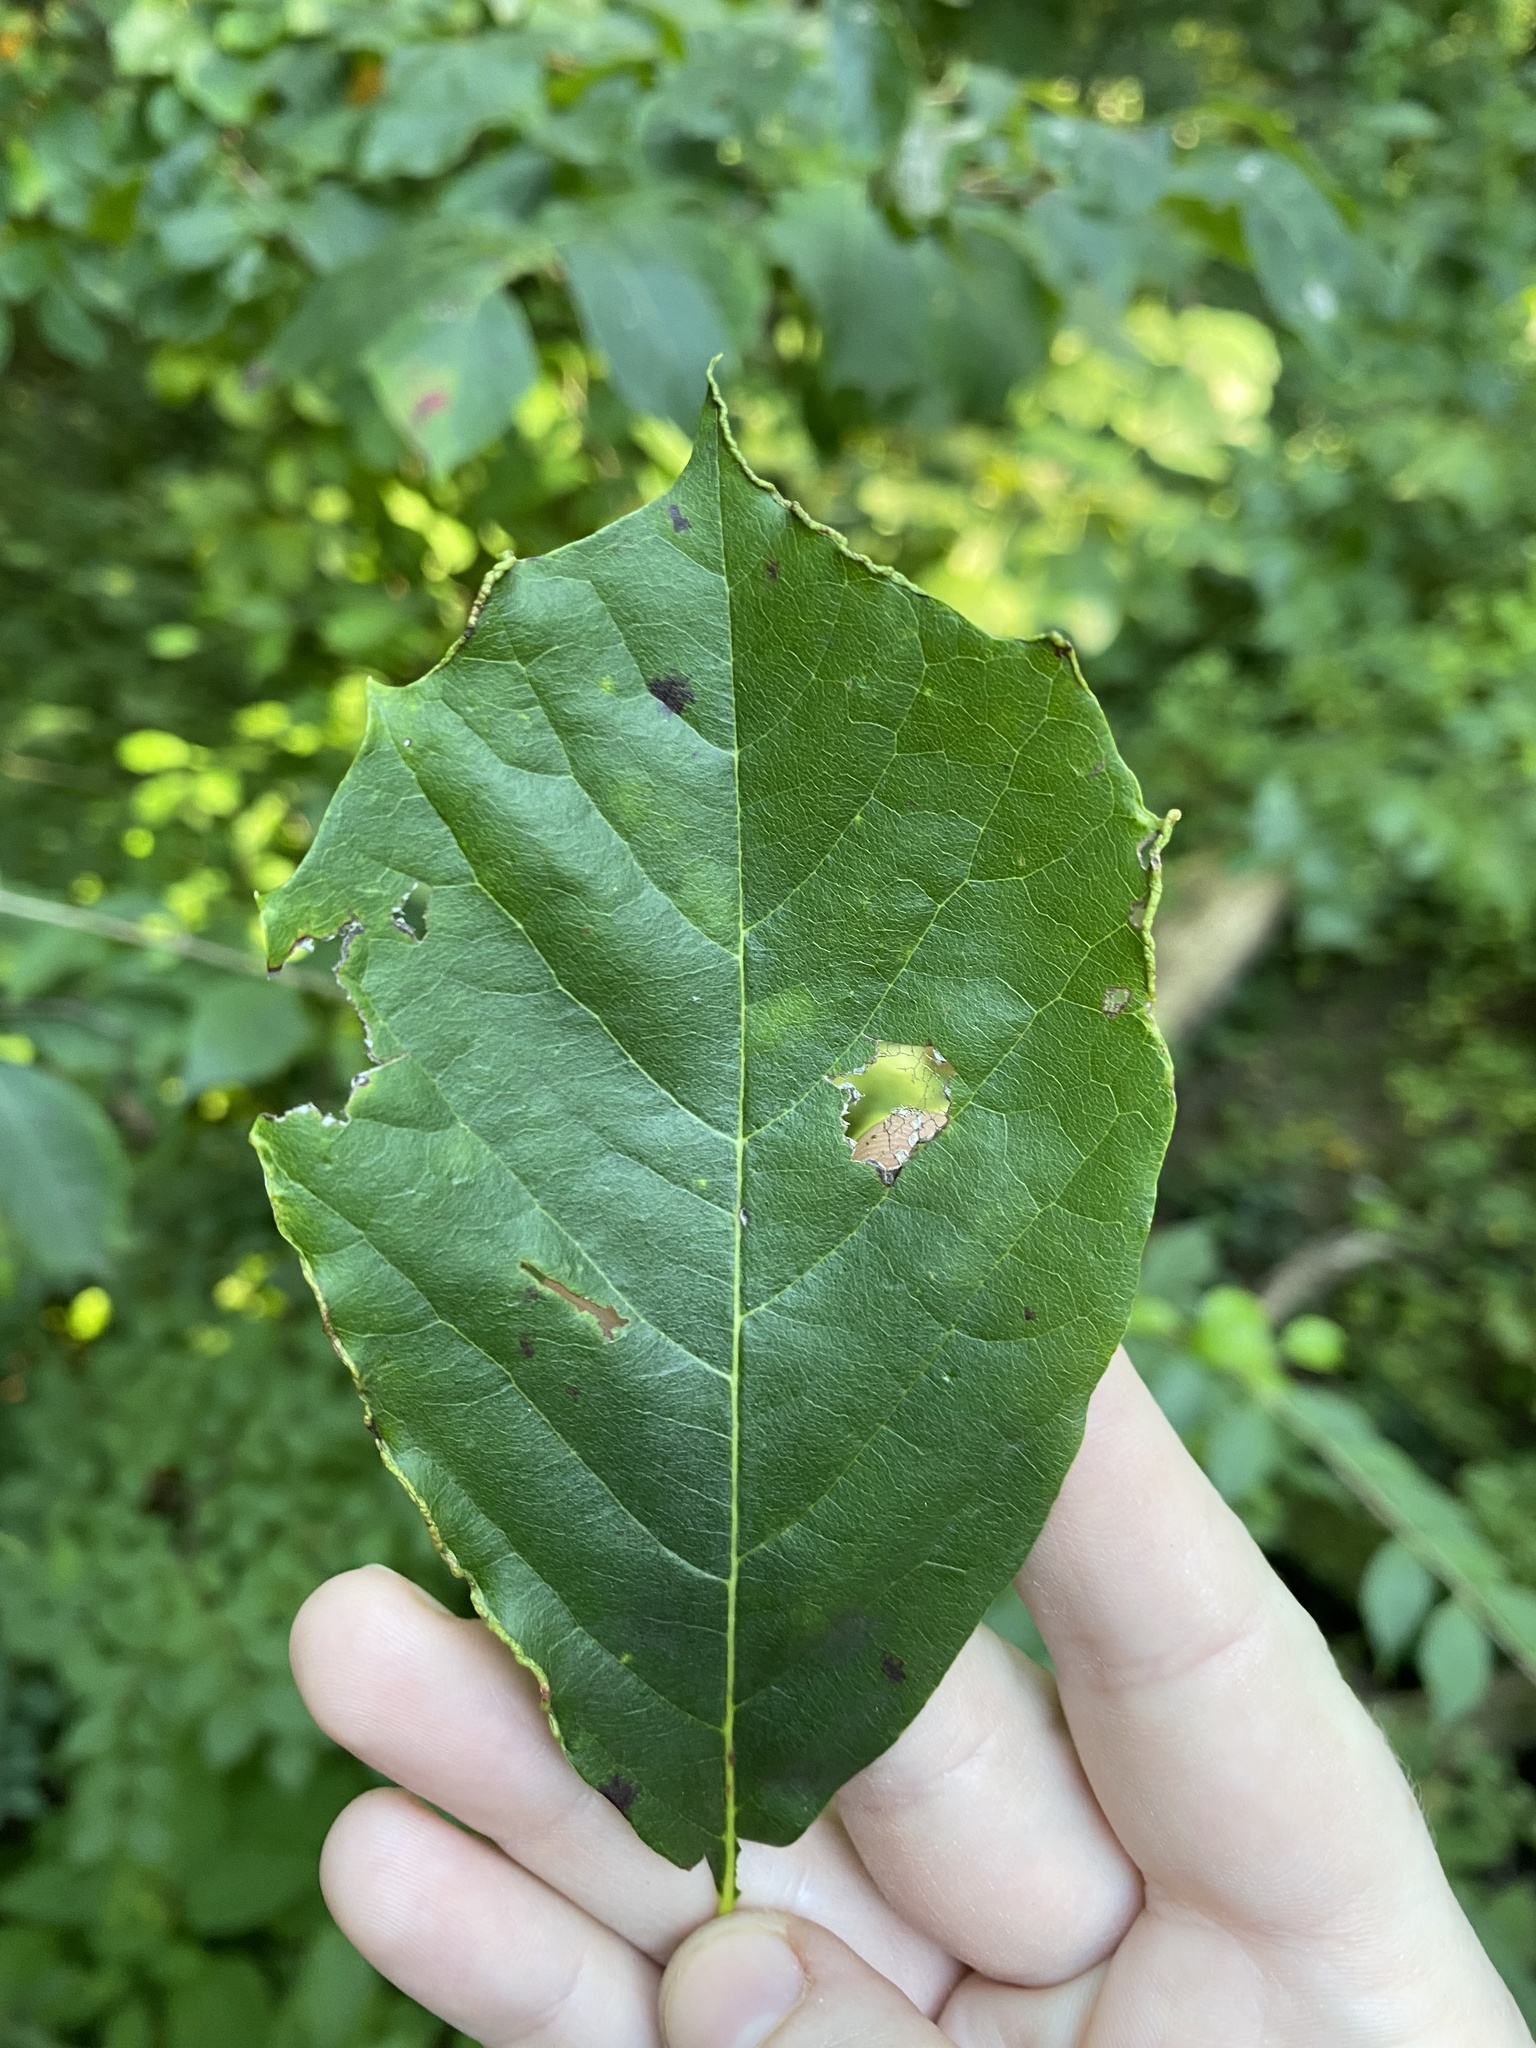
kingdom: Animalia
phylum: Arthropoda
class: Arachnida
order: Trombidiformes
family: Eriophyidae
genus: Aceria
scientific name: Aceria
